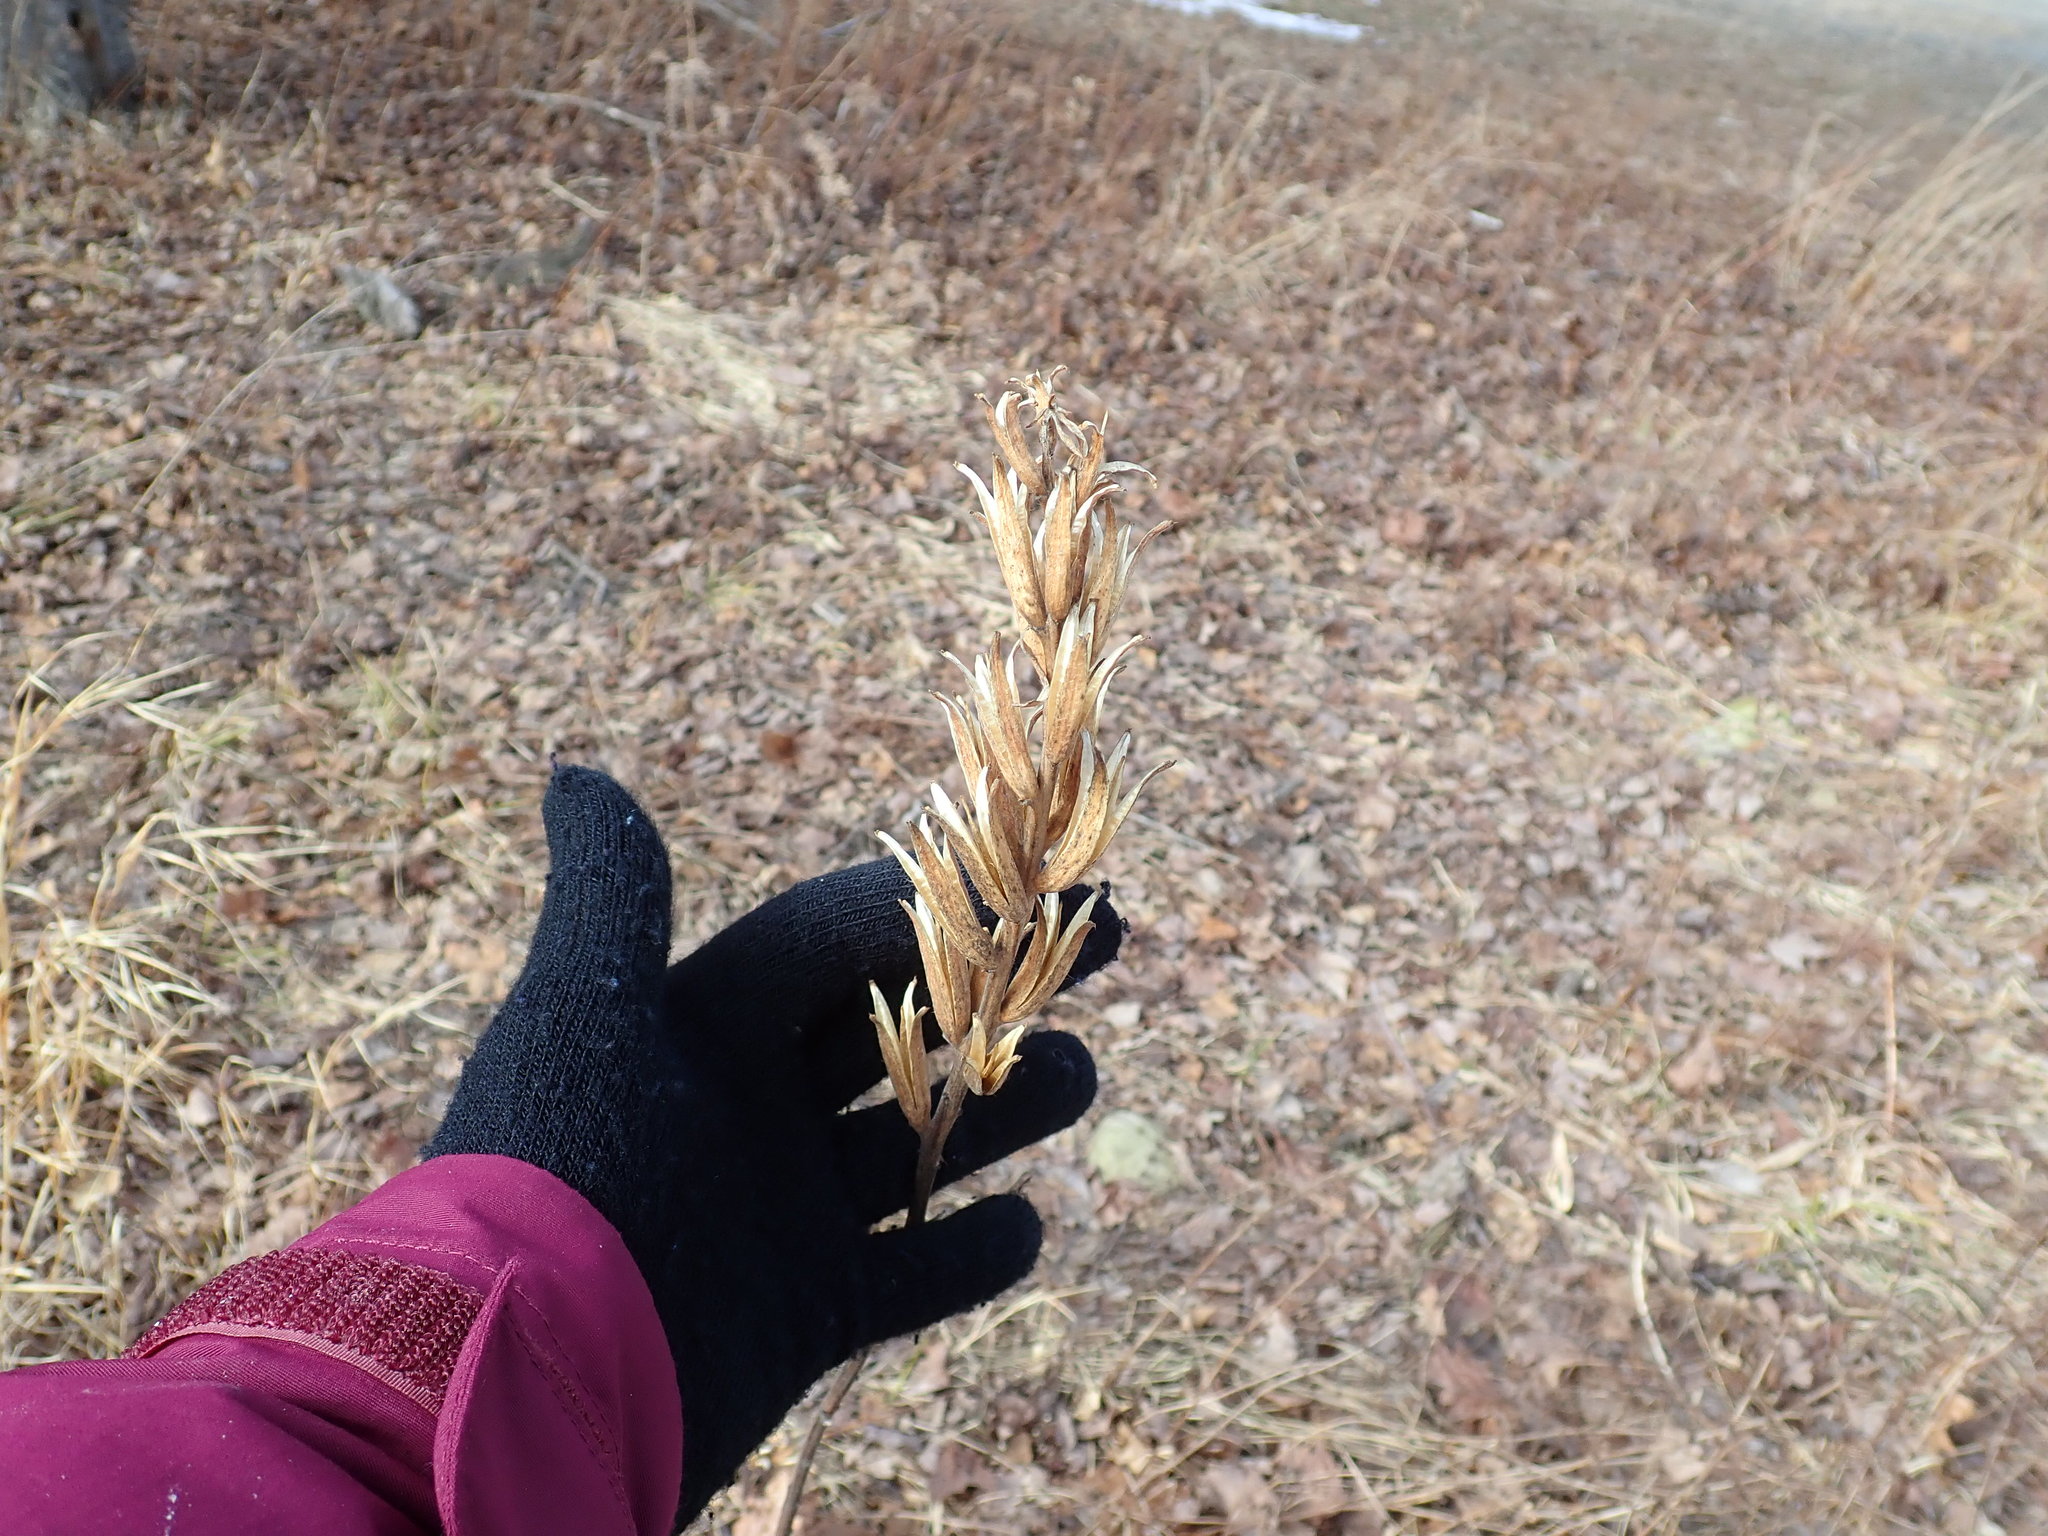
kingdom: Plantae
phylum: Tracheophyta
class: Magnoliopsida
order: Myrtales
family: Onagraceae
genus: Oenothera
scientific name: Oenothera biennis
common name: Common evening-primrose
